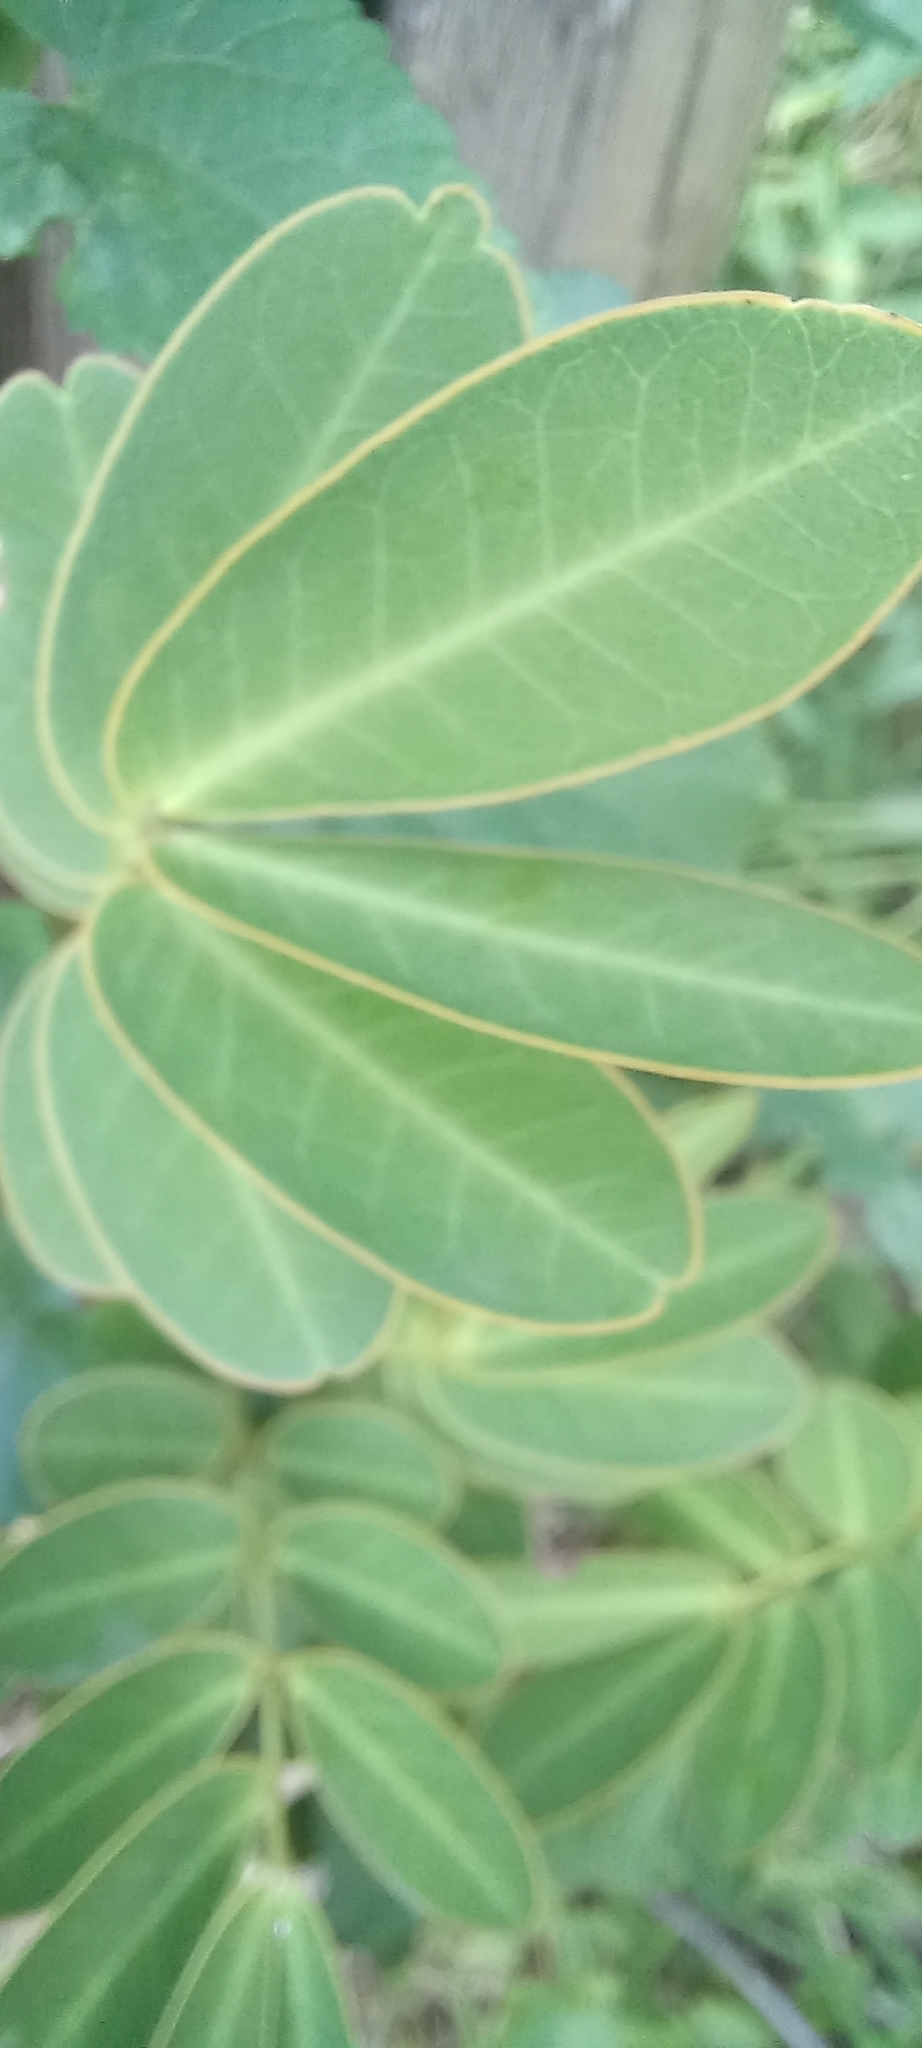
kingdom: Plantae
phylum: Tracheophyta
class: Magnoliopsida
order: Fabales
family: Fabaceae
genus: Senna
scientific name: Senna pendula
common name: Easter cassia
